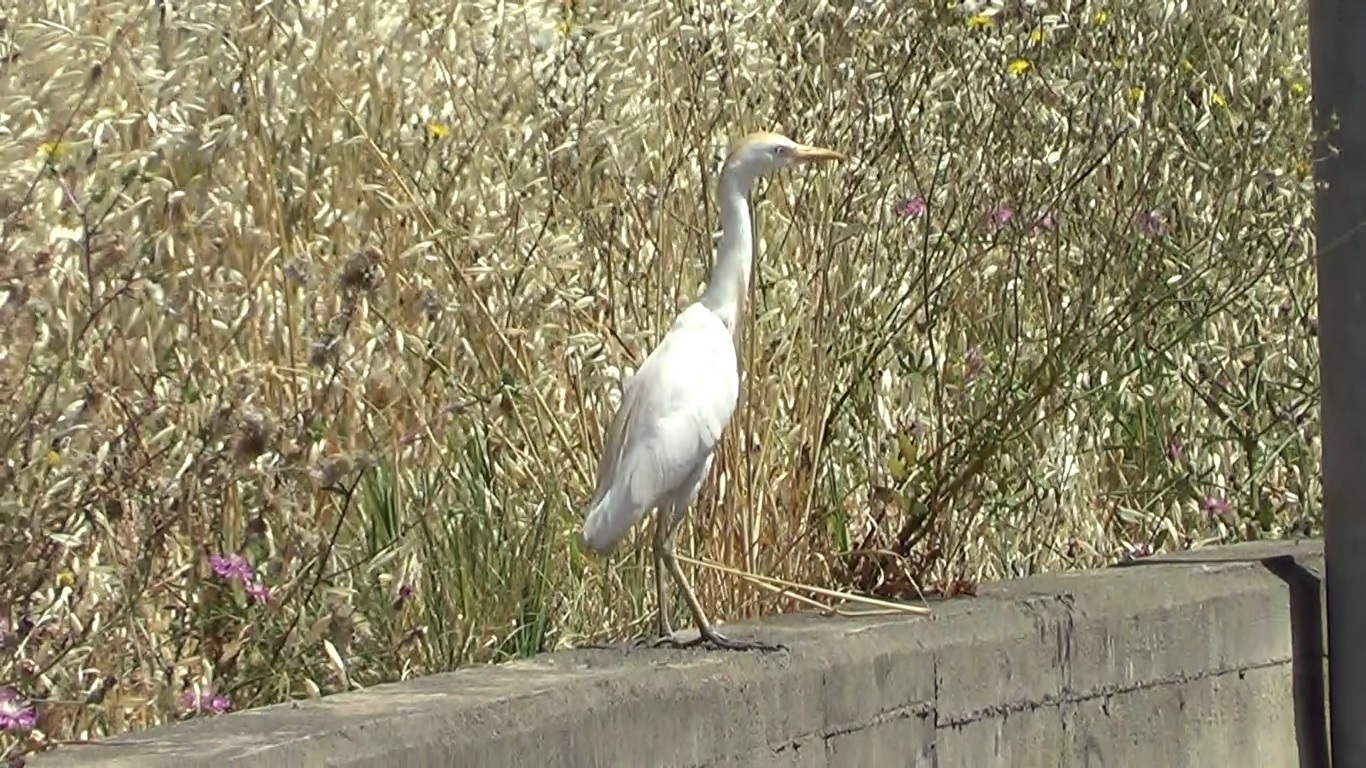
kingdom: Animalia
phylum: Chordata
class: Aves
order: Pelecaniformes
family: Ardeidae
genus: Bubulcus
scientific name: Bubulcus ibis
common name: Cattle egret
